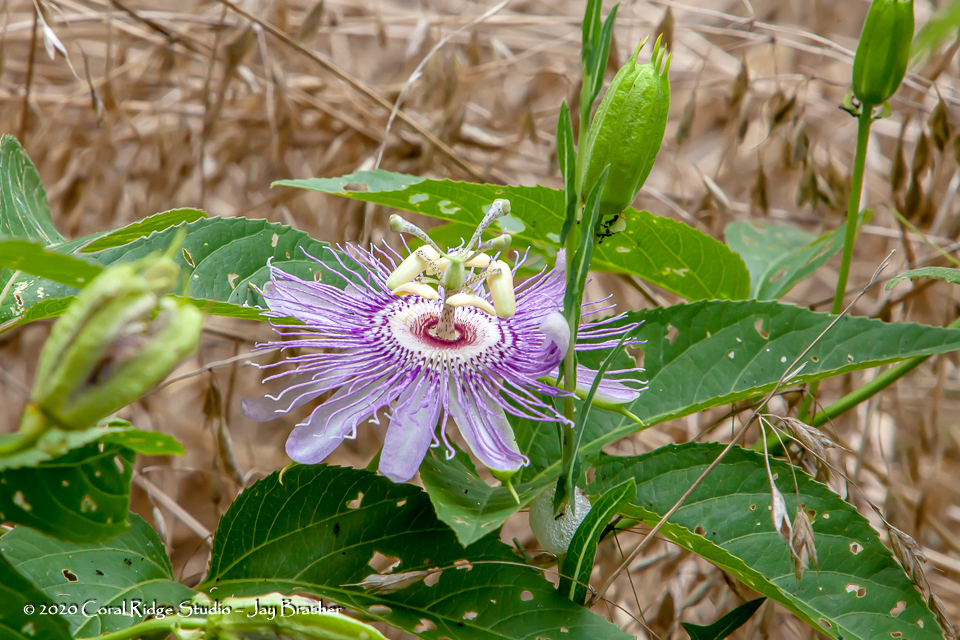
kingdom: Plantae
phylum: Tracheophyta
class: Magnoliopsida
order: Malpighiales
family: Passifloraceae
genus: Passiflora
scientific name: Passiflora incarnata
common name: Apricot-vine
